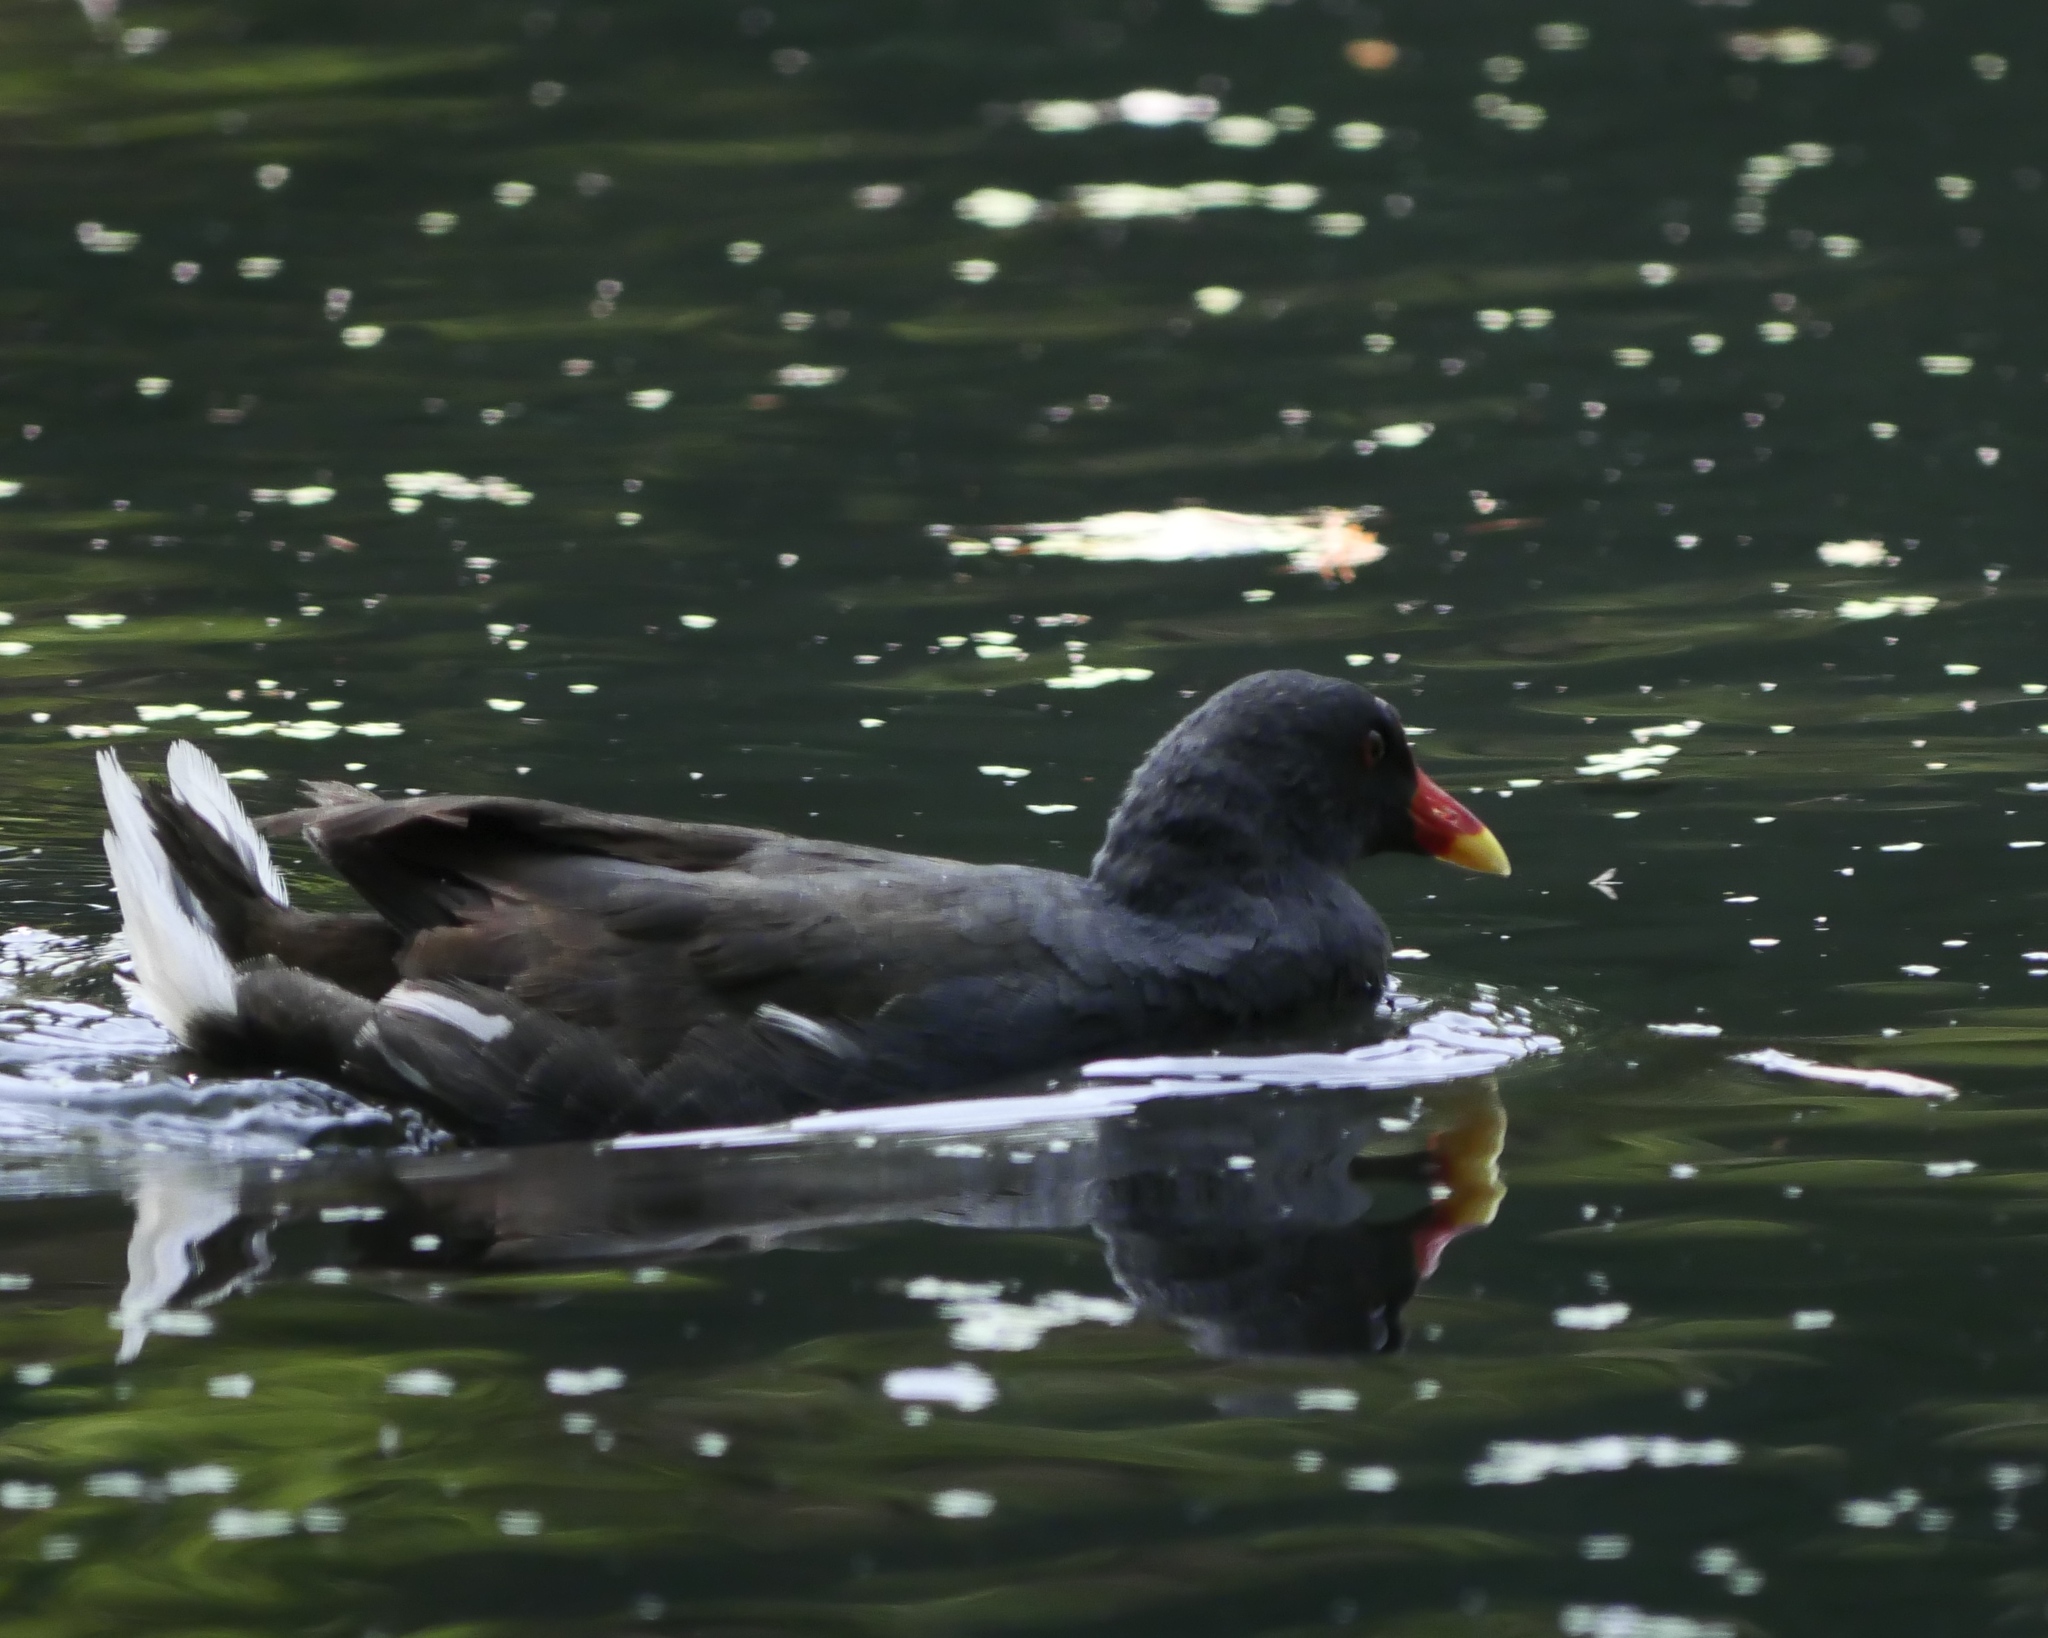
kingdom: Animalia
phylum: Chordata
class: Aves
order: Gruiformes
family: Rallidae
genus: Gallinula
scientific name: Gallinula chloropus
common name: Common moorhen
